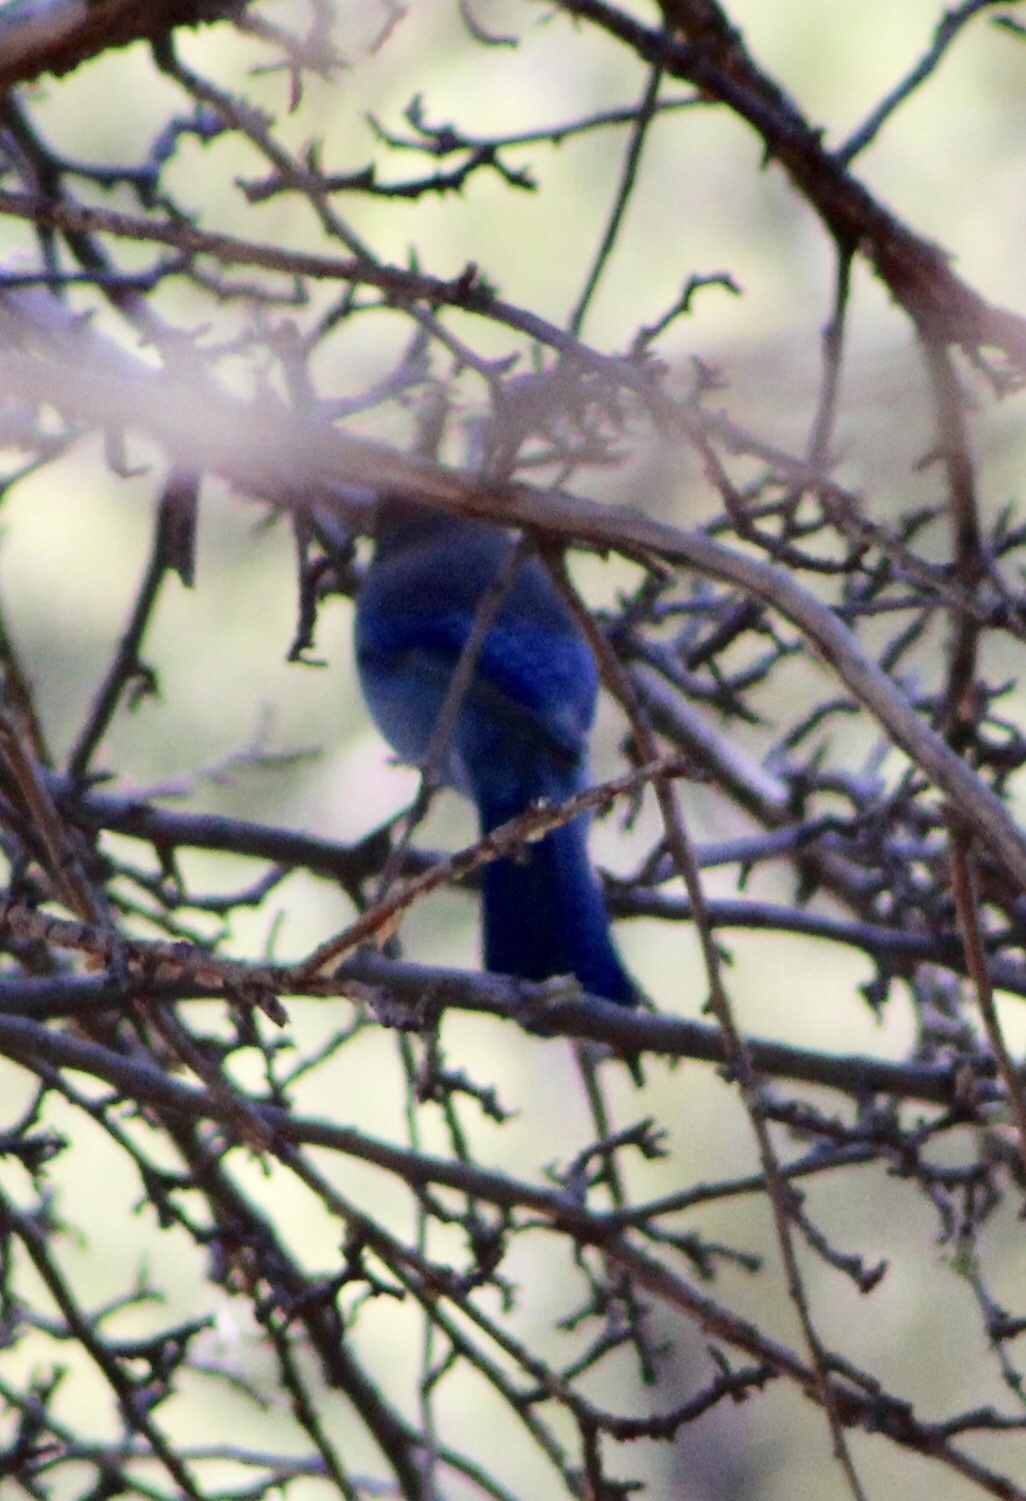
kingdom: Animalia
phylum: Chordata
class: Aves
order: Passeriformes
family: Corvidae
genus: Cyanocitta
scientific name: Cyanocitta stelleri
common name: Steller's jay
